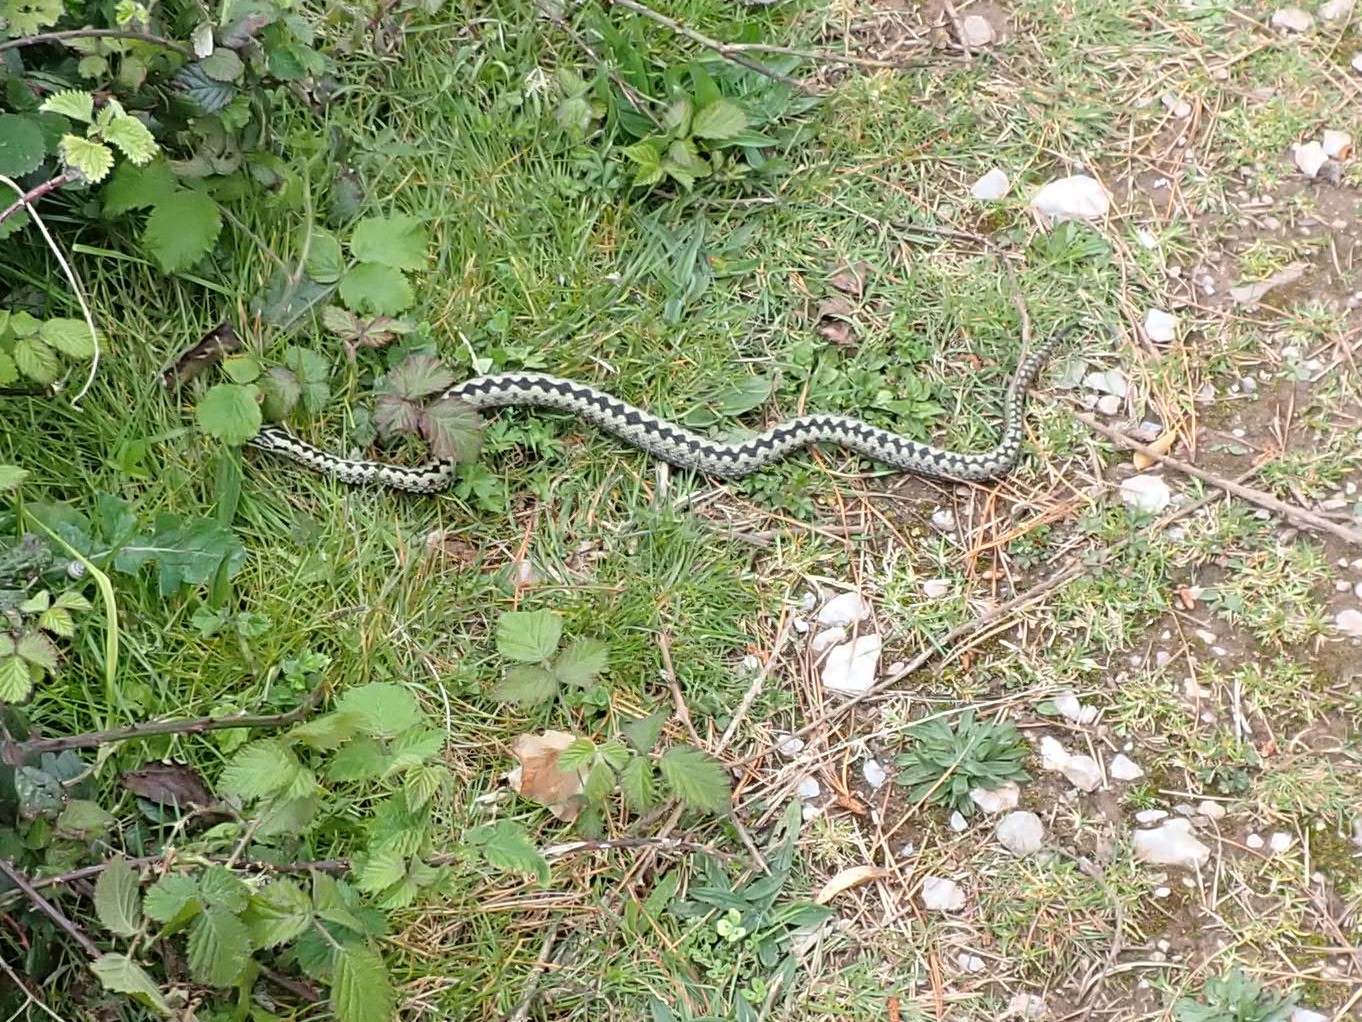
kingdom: Animalia
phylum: Chordata
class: Squamata
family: Viperidae
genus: Vipera
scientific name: Vipera berus
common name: Adder
